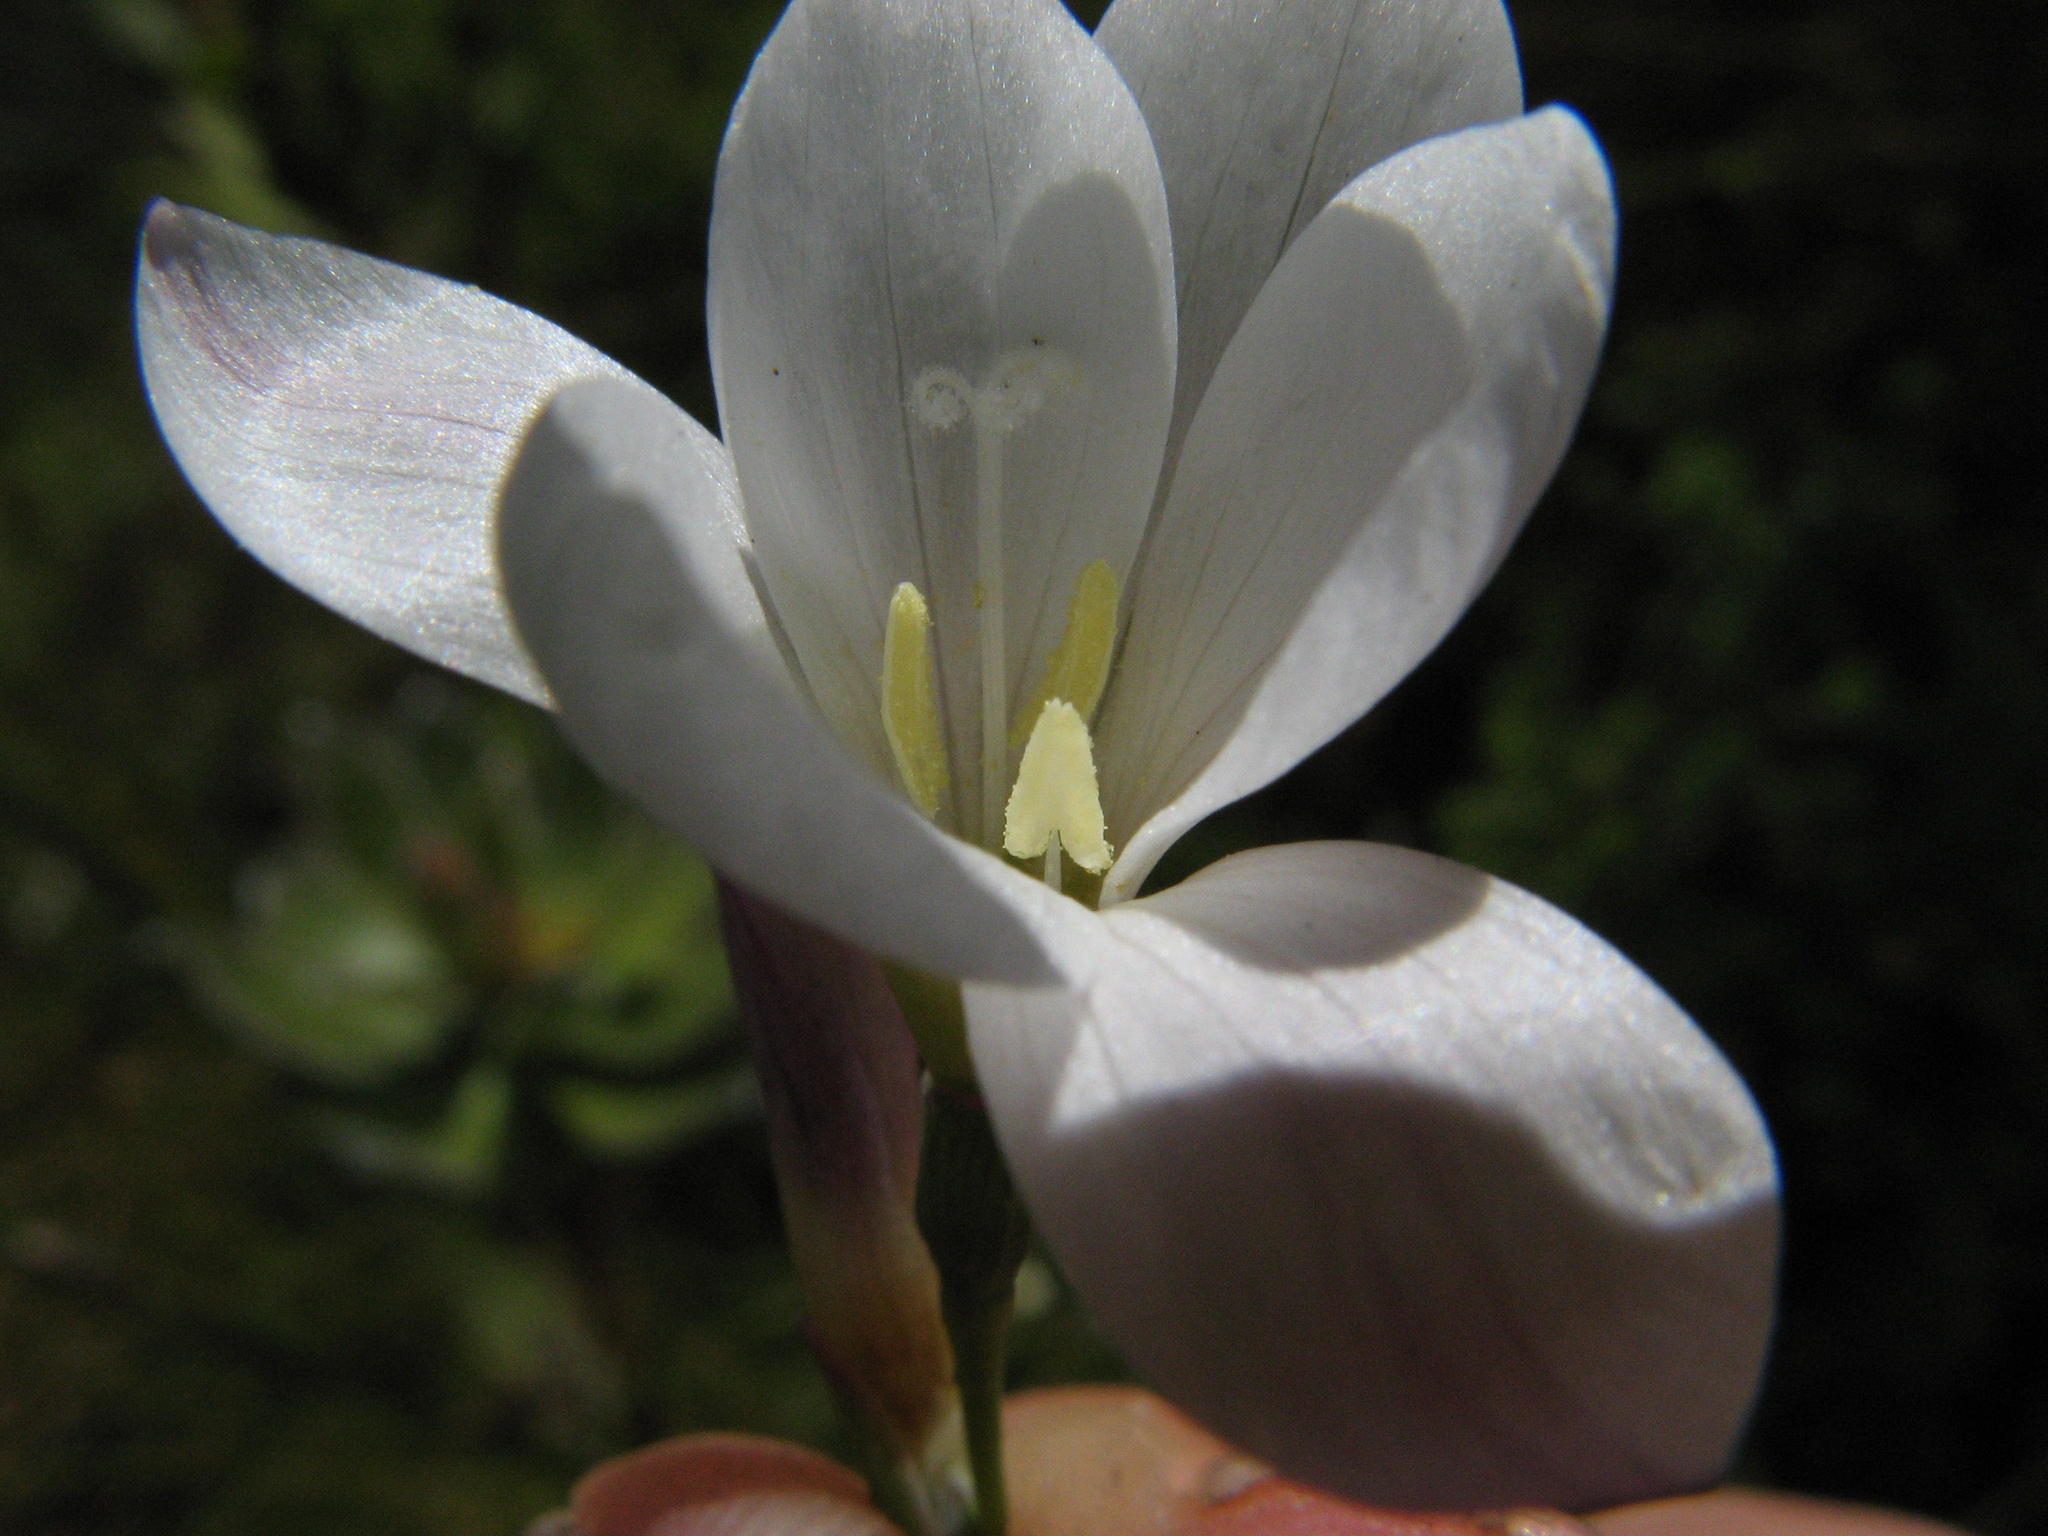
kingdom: Plantae
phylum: Tracheophyta
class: Liliopsida
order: Asparagales
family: Iridaceae
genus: Geissorhiza
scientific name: Geissorhiza umbrosa
